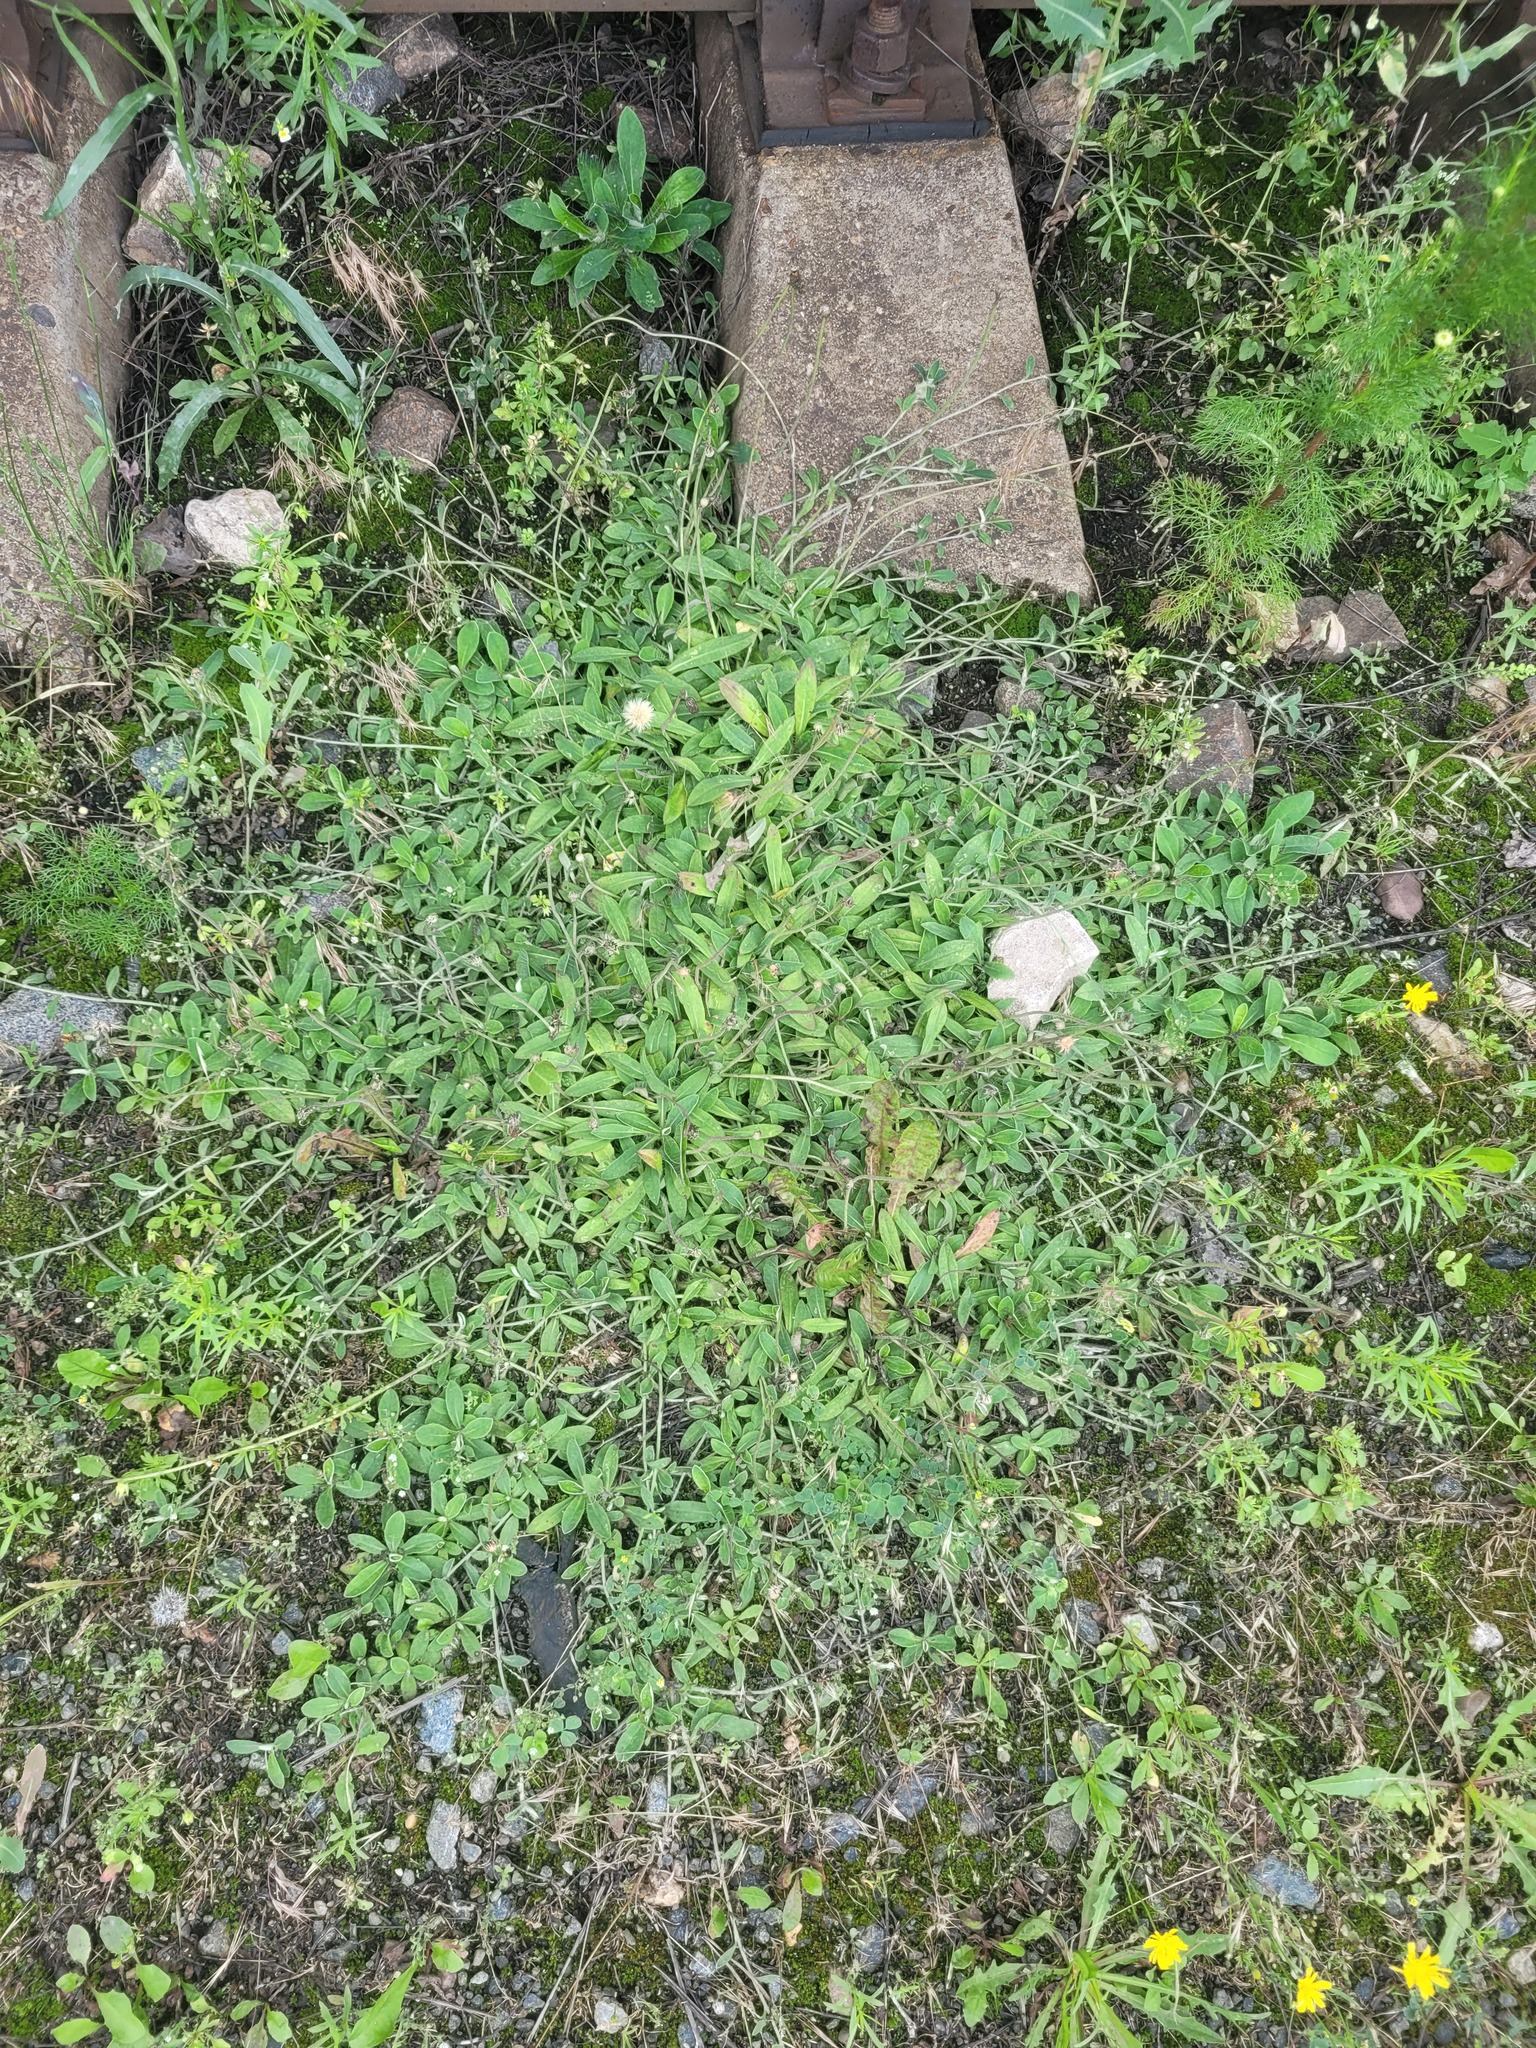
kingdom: Plantae
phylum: Tracheophyta
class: Magnoliopsida
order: Asterales
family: Asteraceae
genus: Pilosella
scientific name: Pilosella officinarum
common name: Mouse-ear hawkweed
